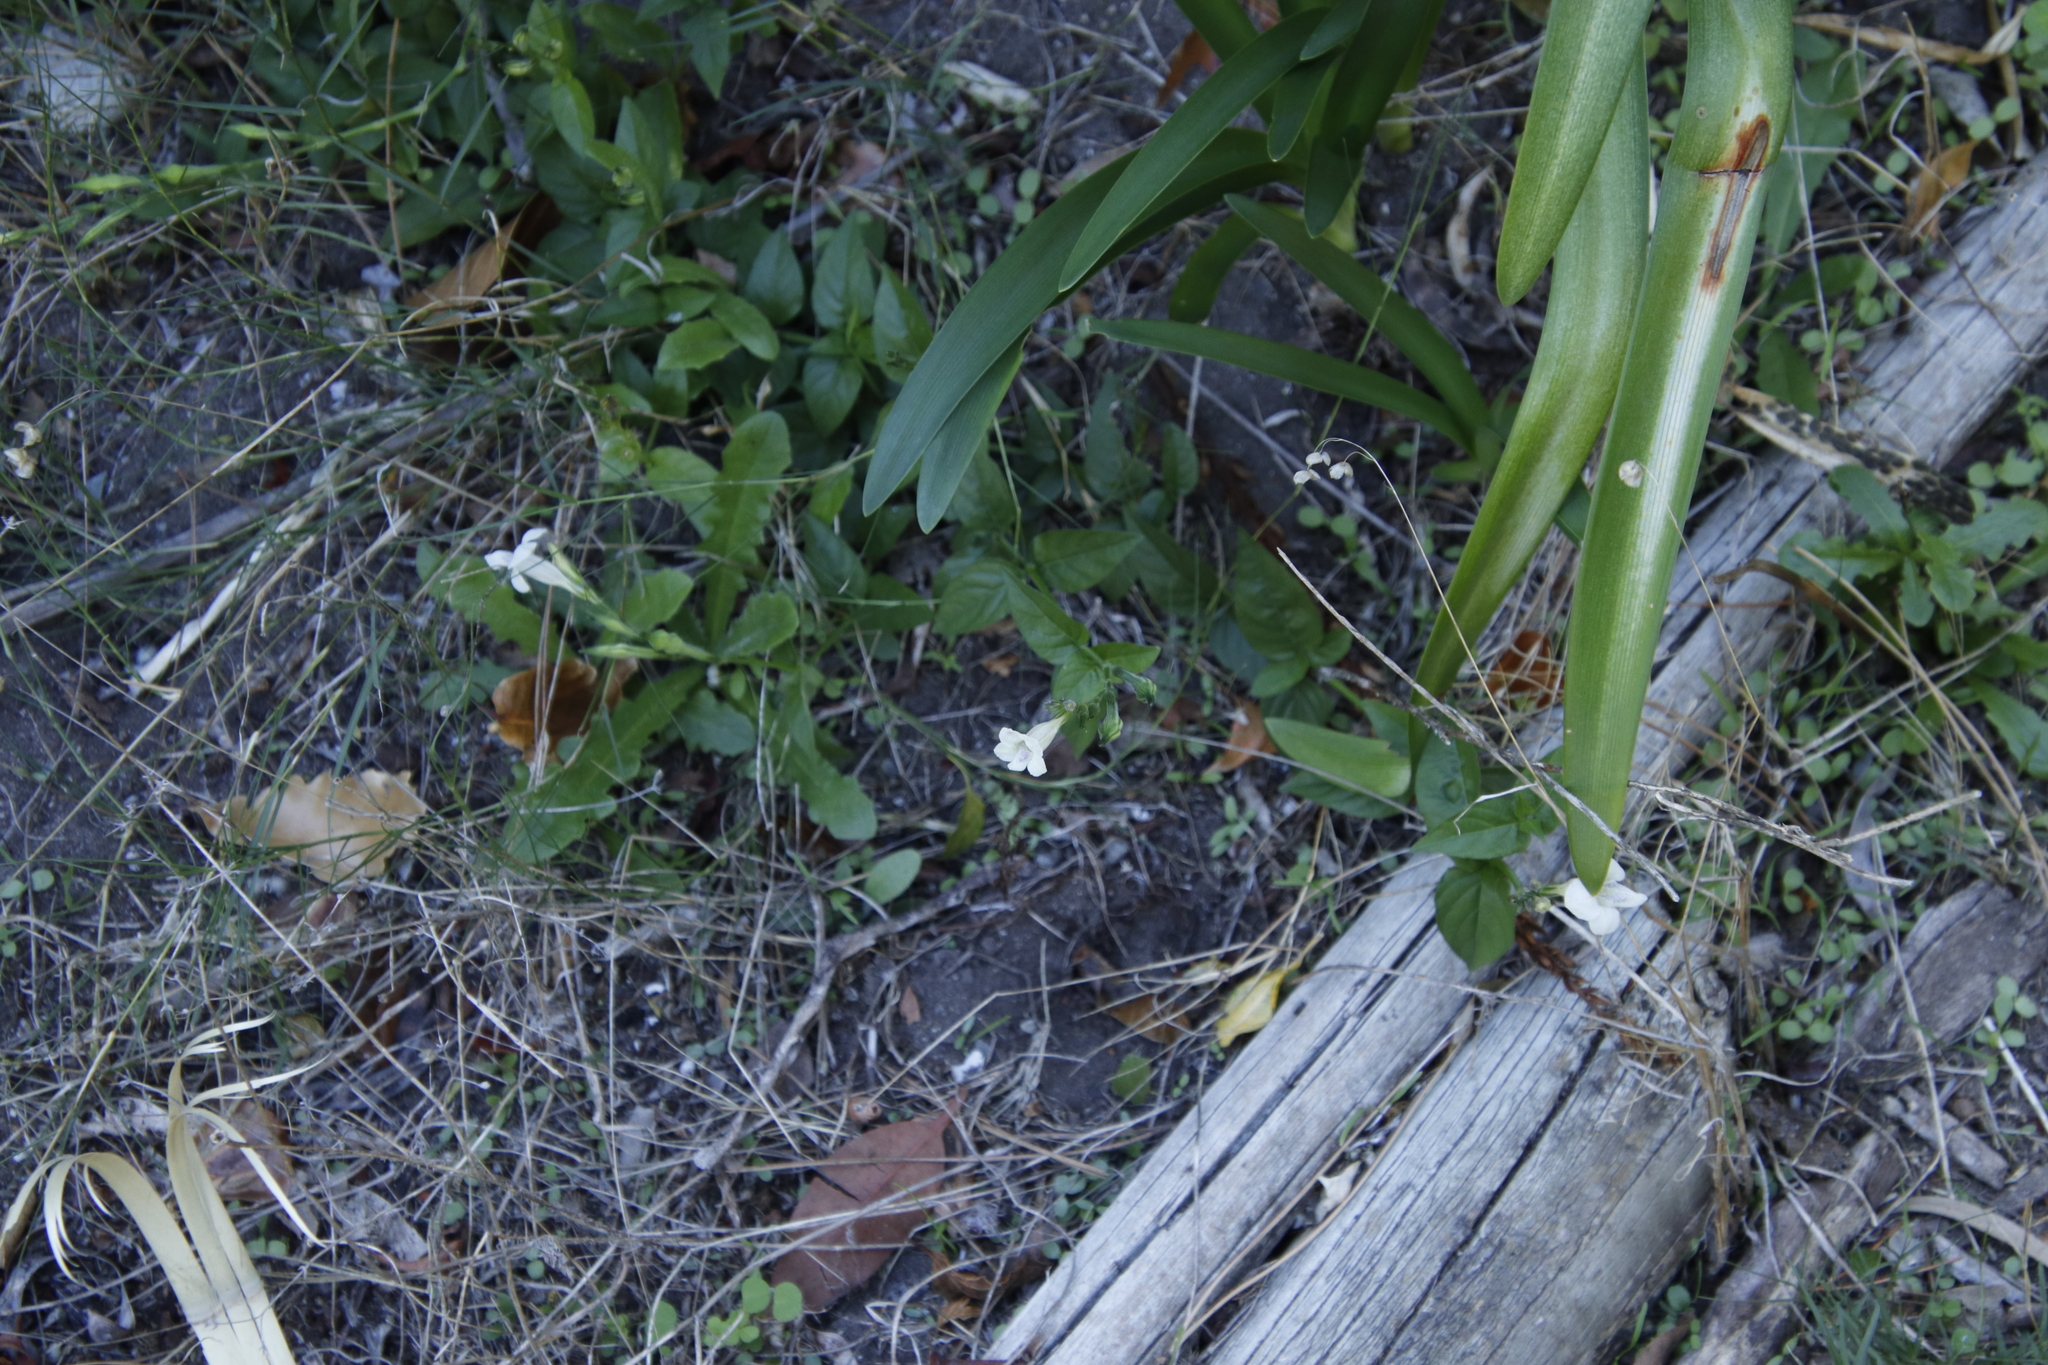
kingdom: Plantae
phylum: Tracheophyta
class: Magnoliopsida
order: Lamiales
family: Acanthaceae
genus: Asystasia
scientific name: Asystasia intrusa
